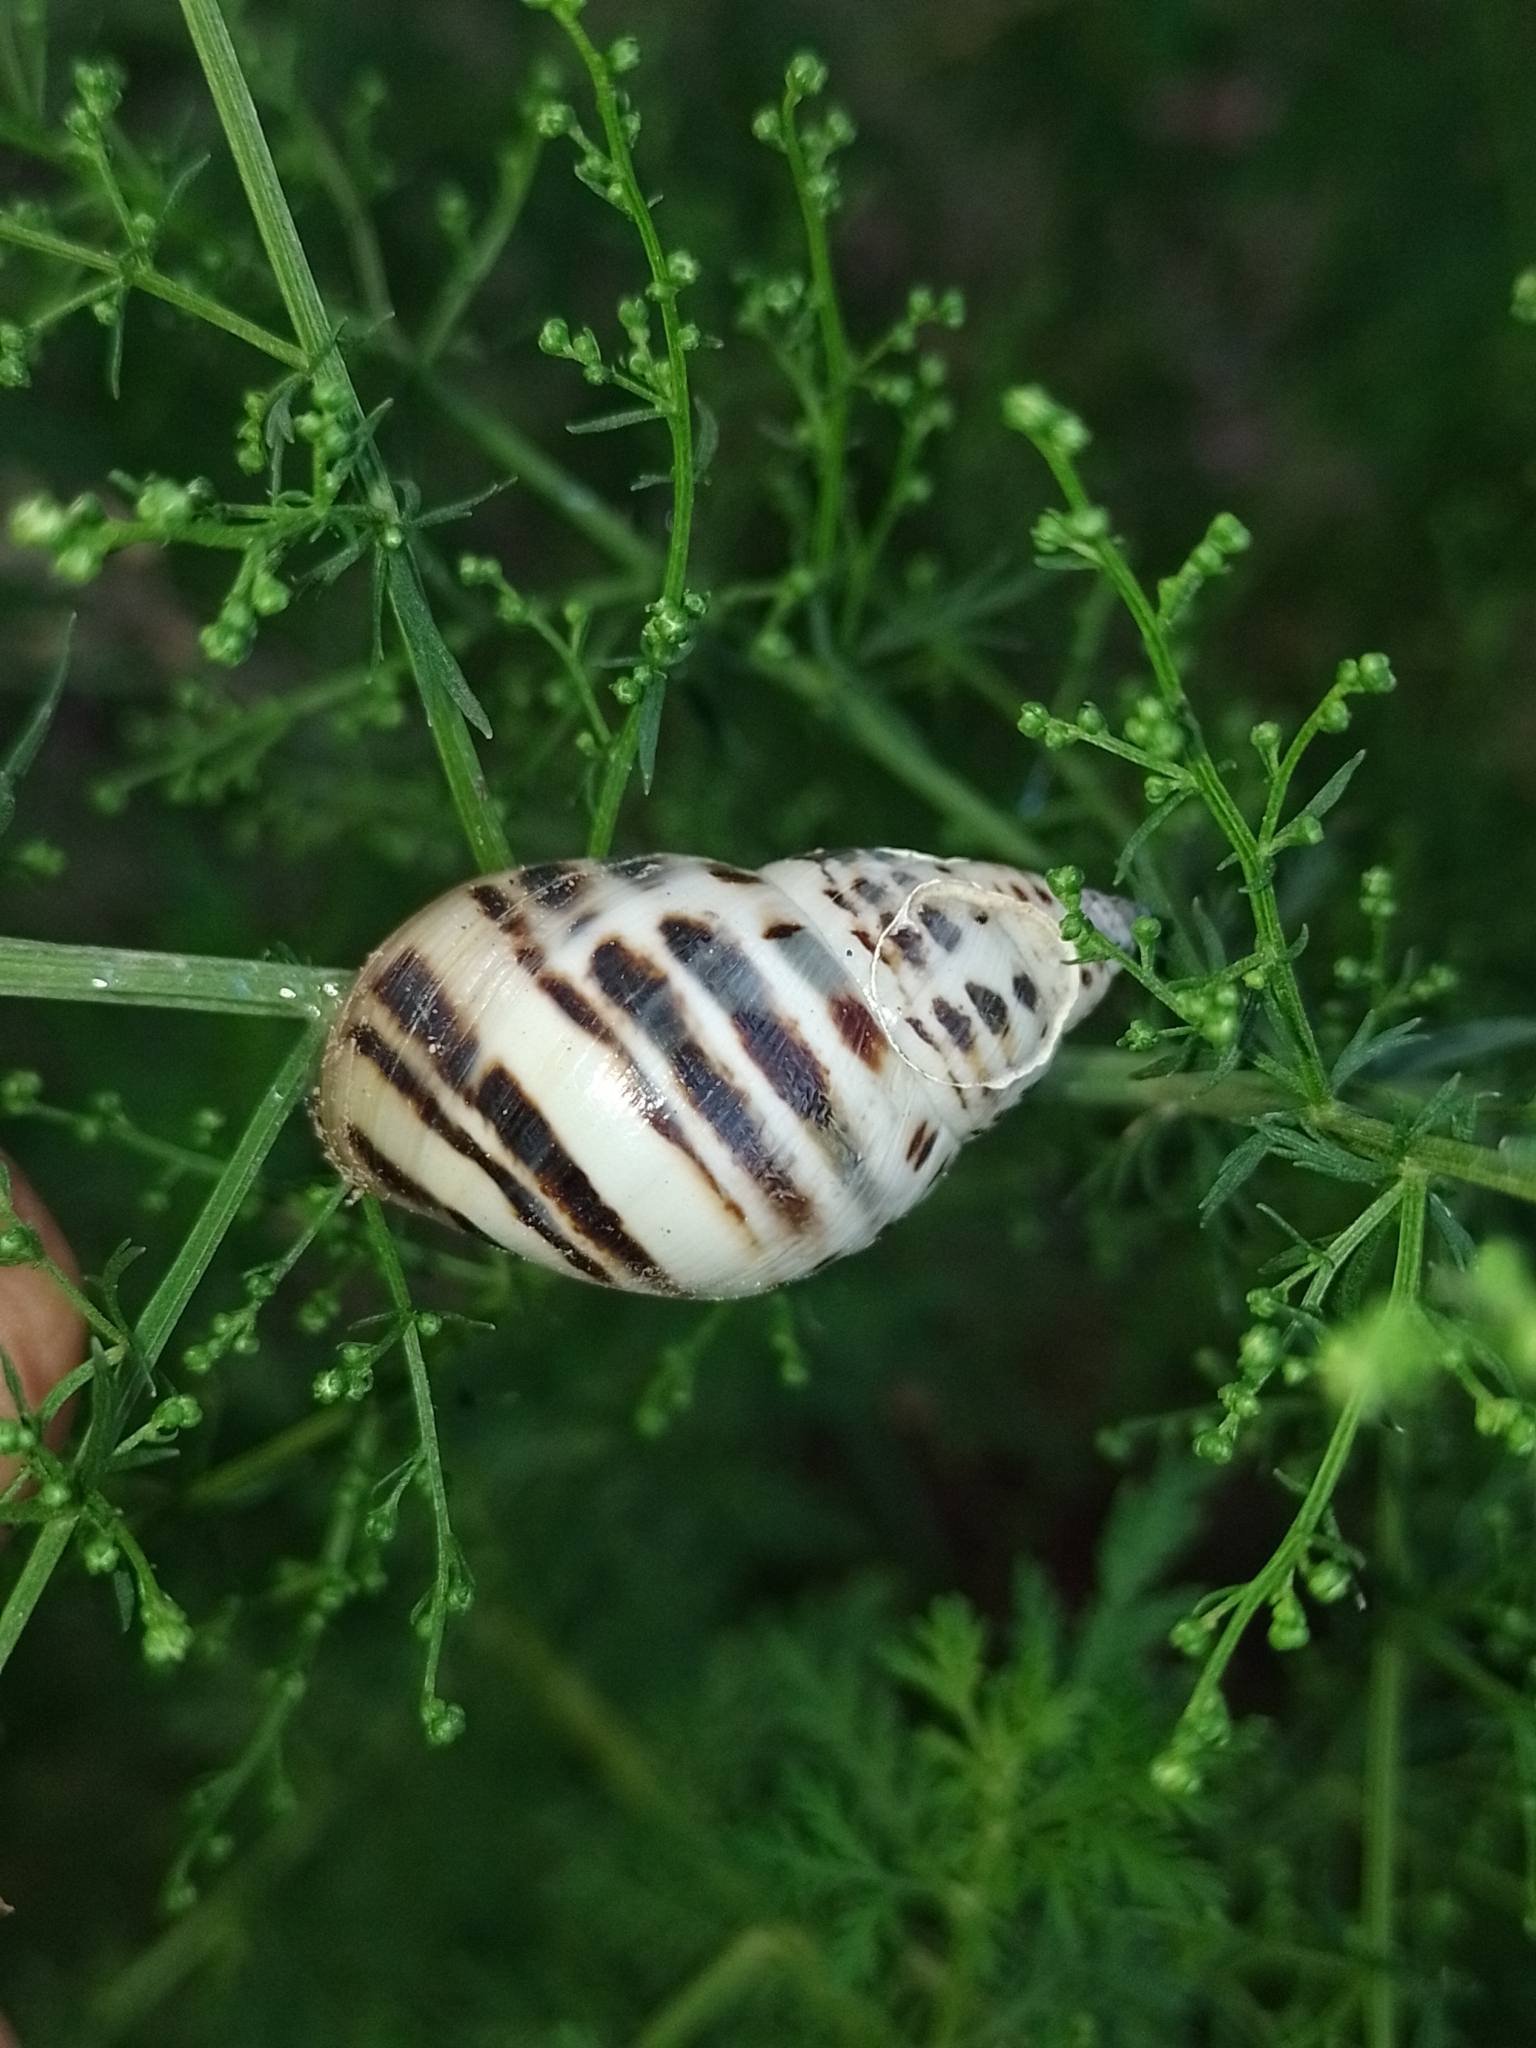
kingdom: Animalia
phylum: Mollusca
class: Gastropoda
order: Stylommatophora
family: Bulimulidae
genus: Drymaeus
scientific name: Drymaeus poecilus
